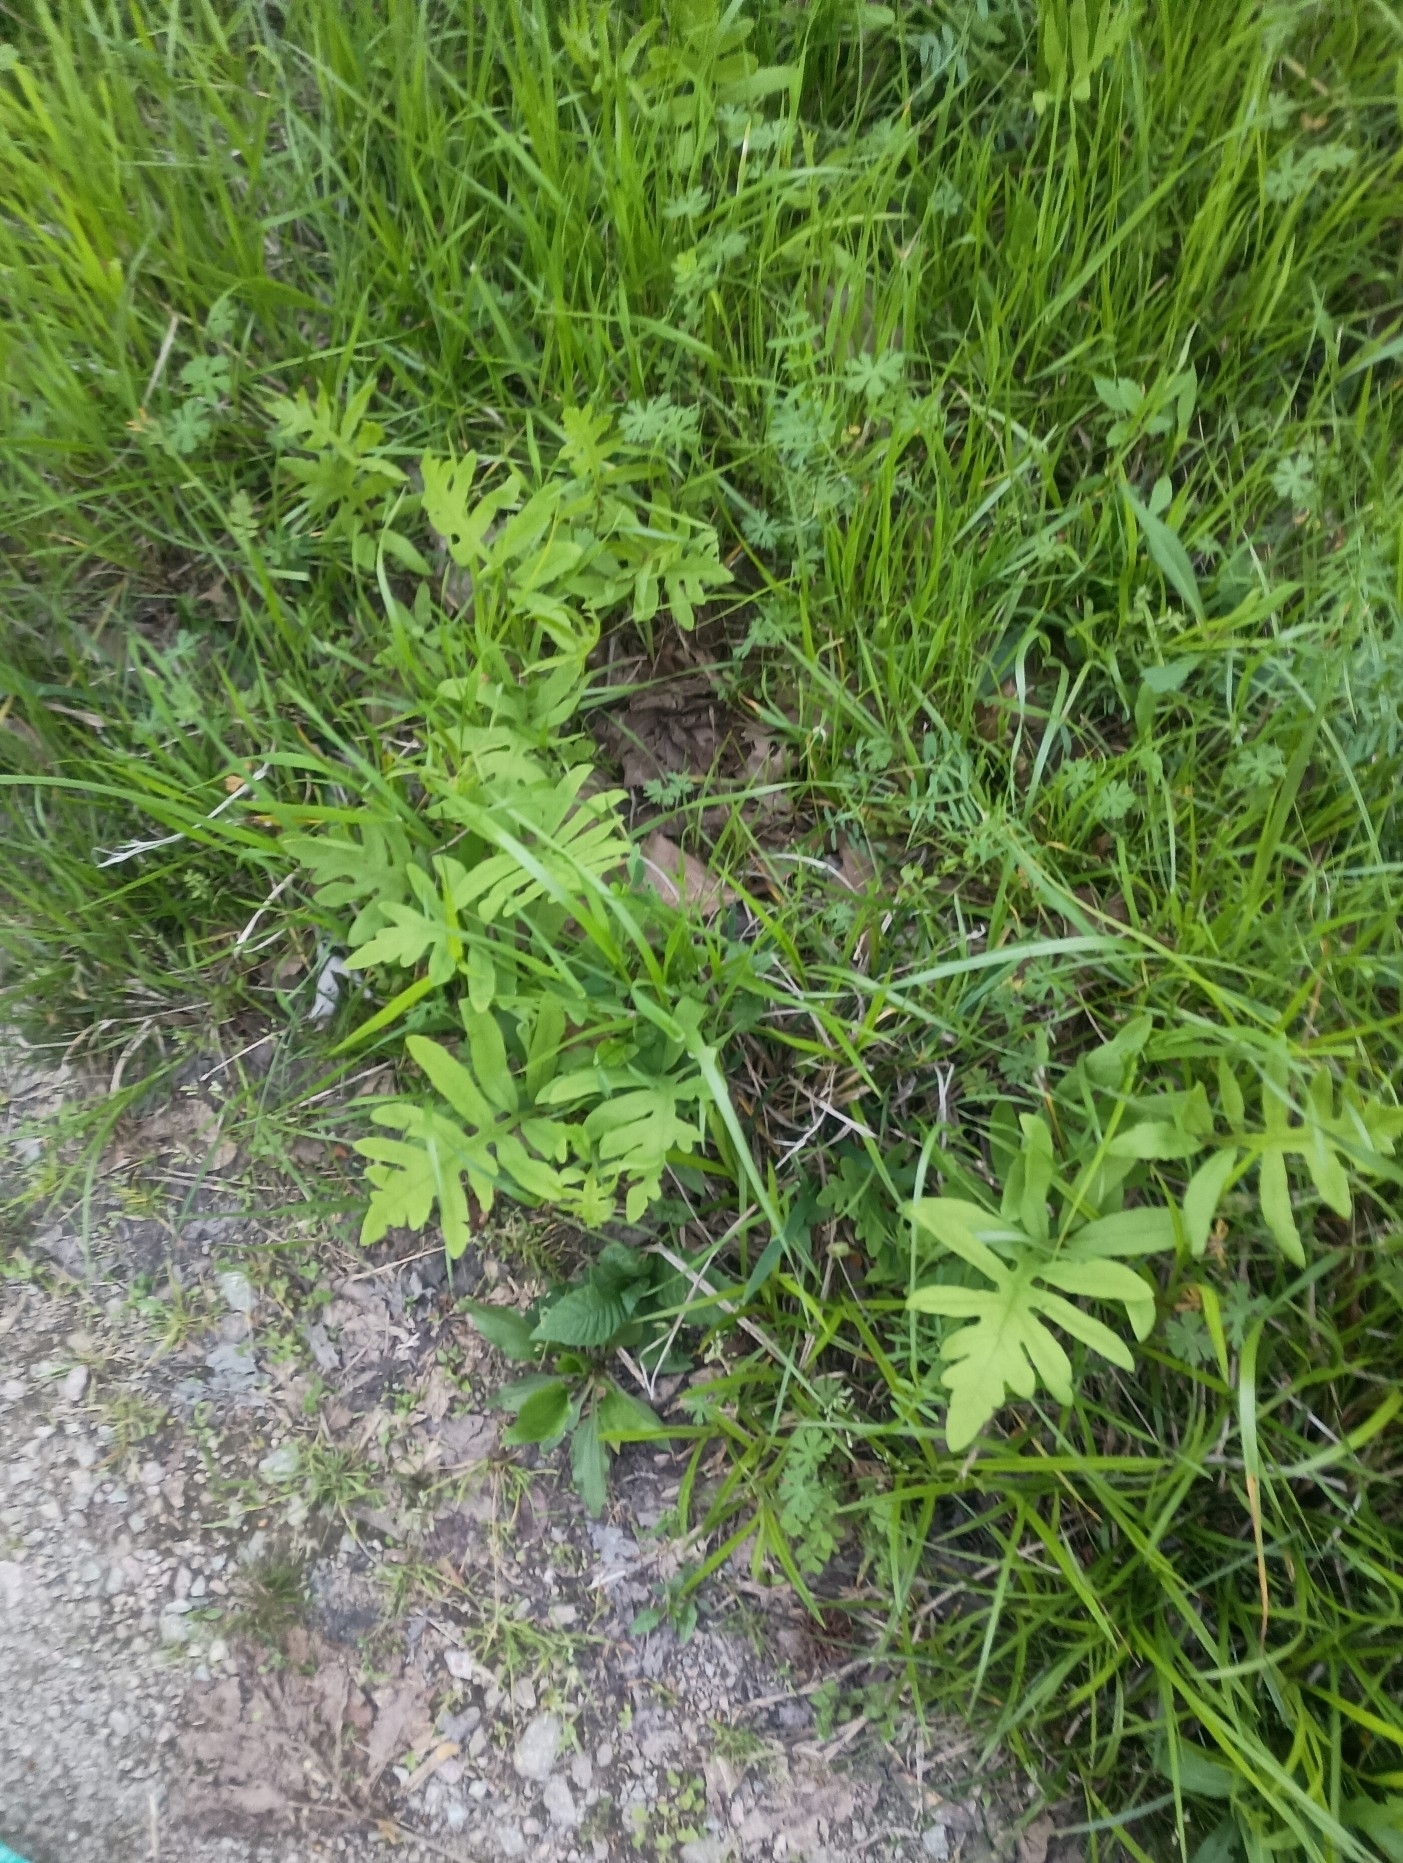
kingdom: Plantae
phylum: Tracheophyta
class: Polypodiopsida
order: Polypodiales
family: Onocleaceae
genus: Onoclea
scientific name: Onoclea sensibilis
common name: Sensitive fern
